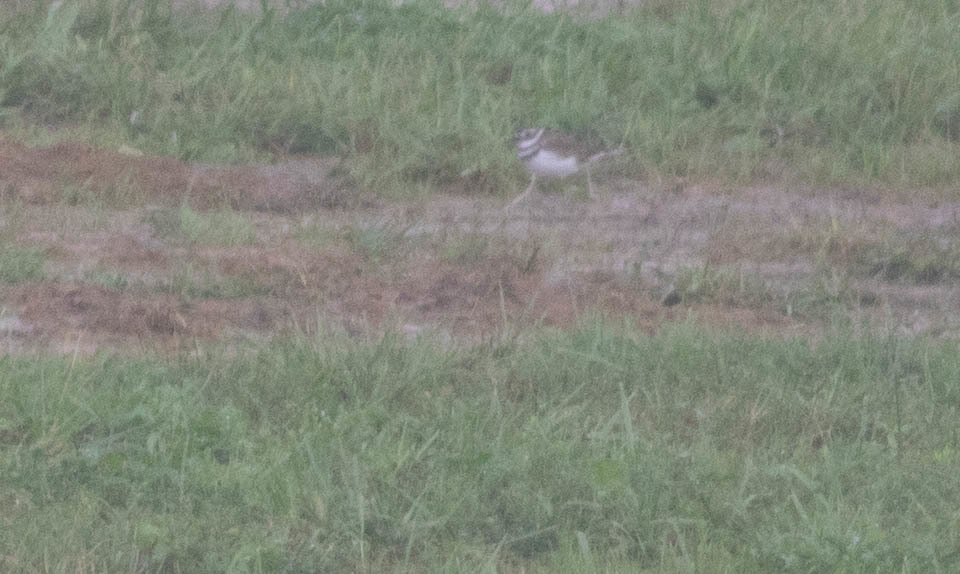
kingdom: Animalia
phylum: Chordata
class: Aves
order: Charadriiformes
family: Charadriidae
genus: Charadrius
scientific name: Charadrius vociferus
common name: Killdeer
